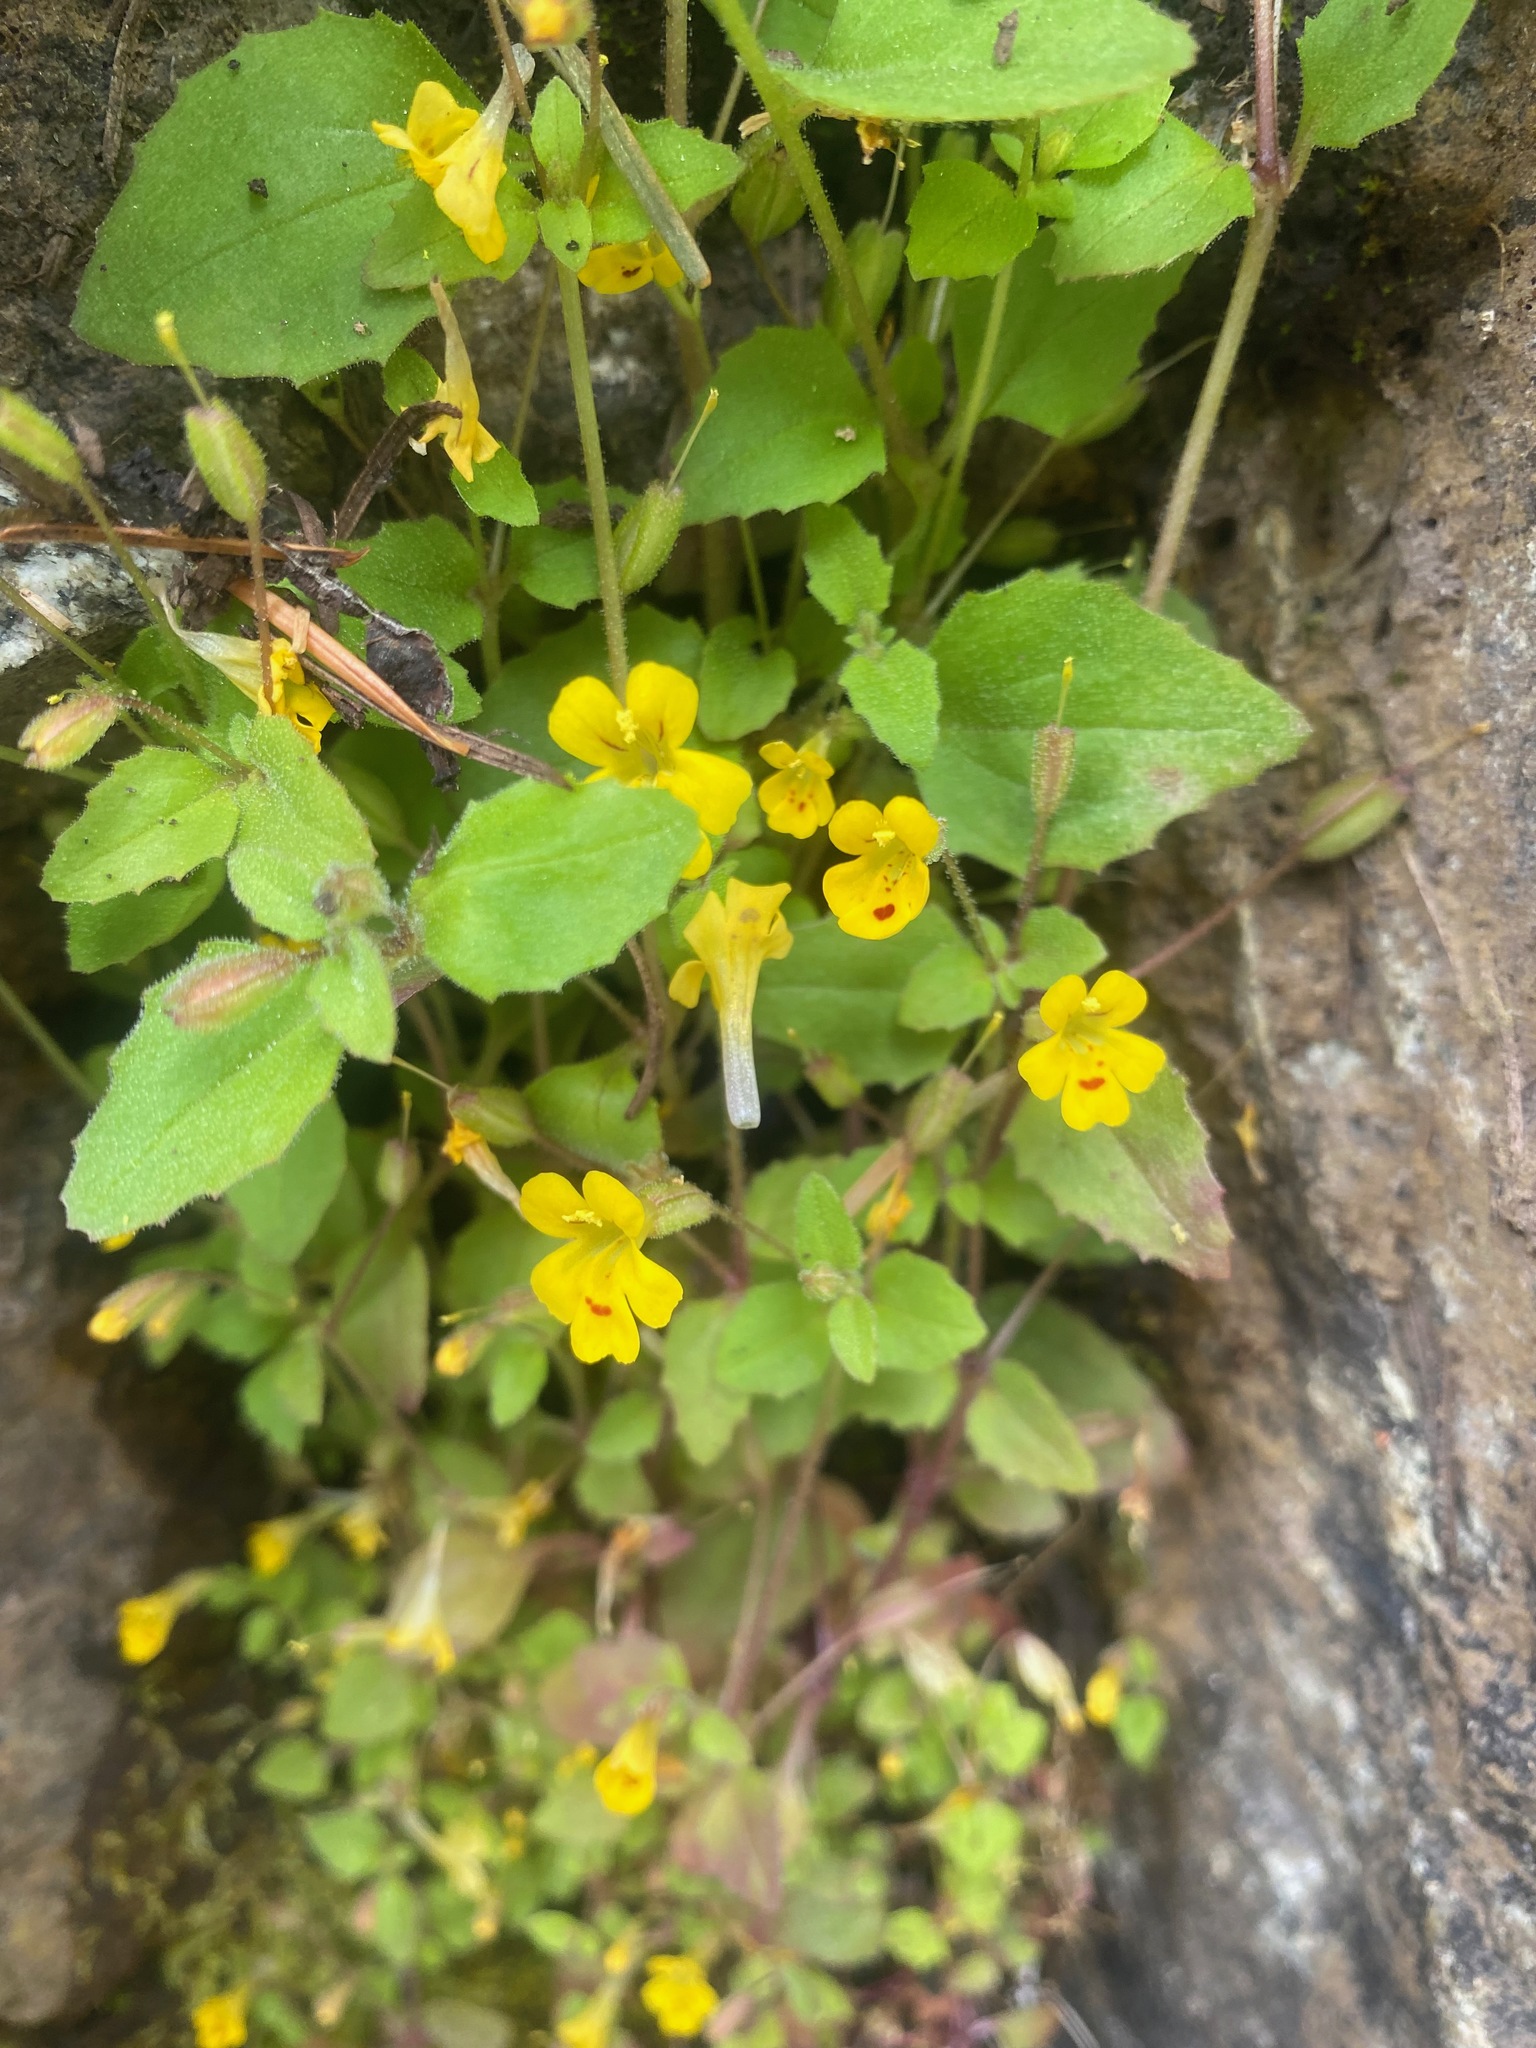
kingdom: Plantae
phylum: Tracheophyta
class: Magnoliopsida
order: Lamiales
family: Phrymaceae
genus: Erythranthe
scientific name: Erythranthe alsinoides
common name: Chickweed monkeyflower
